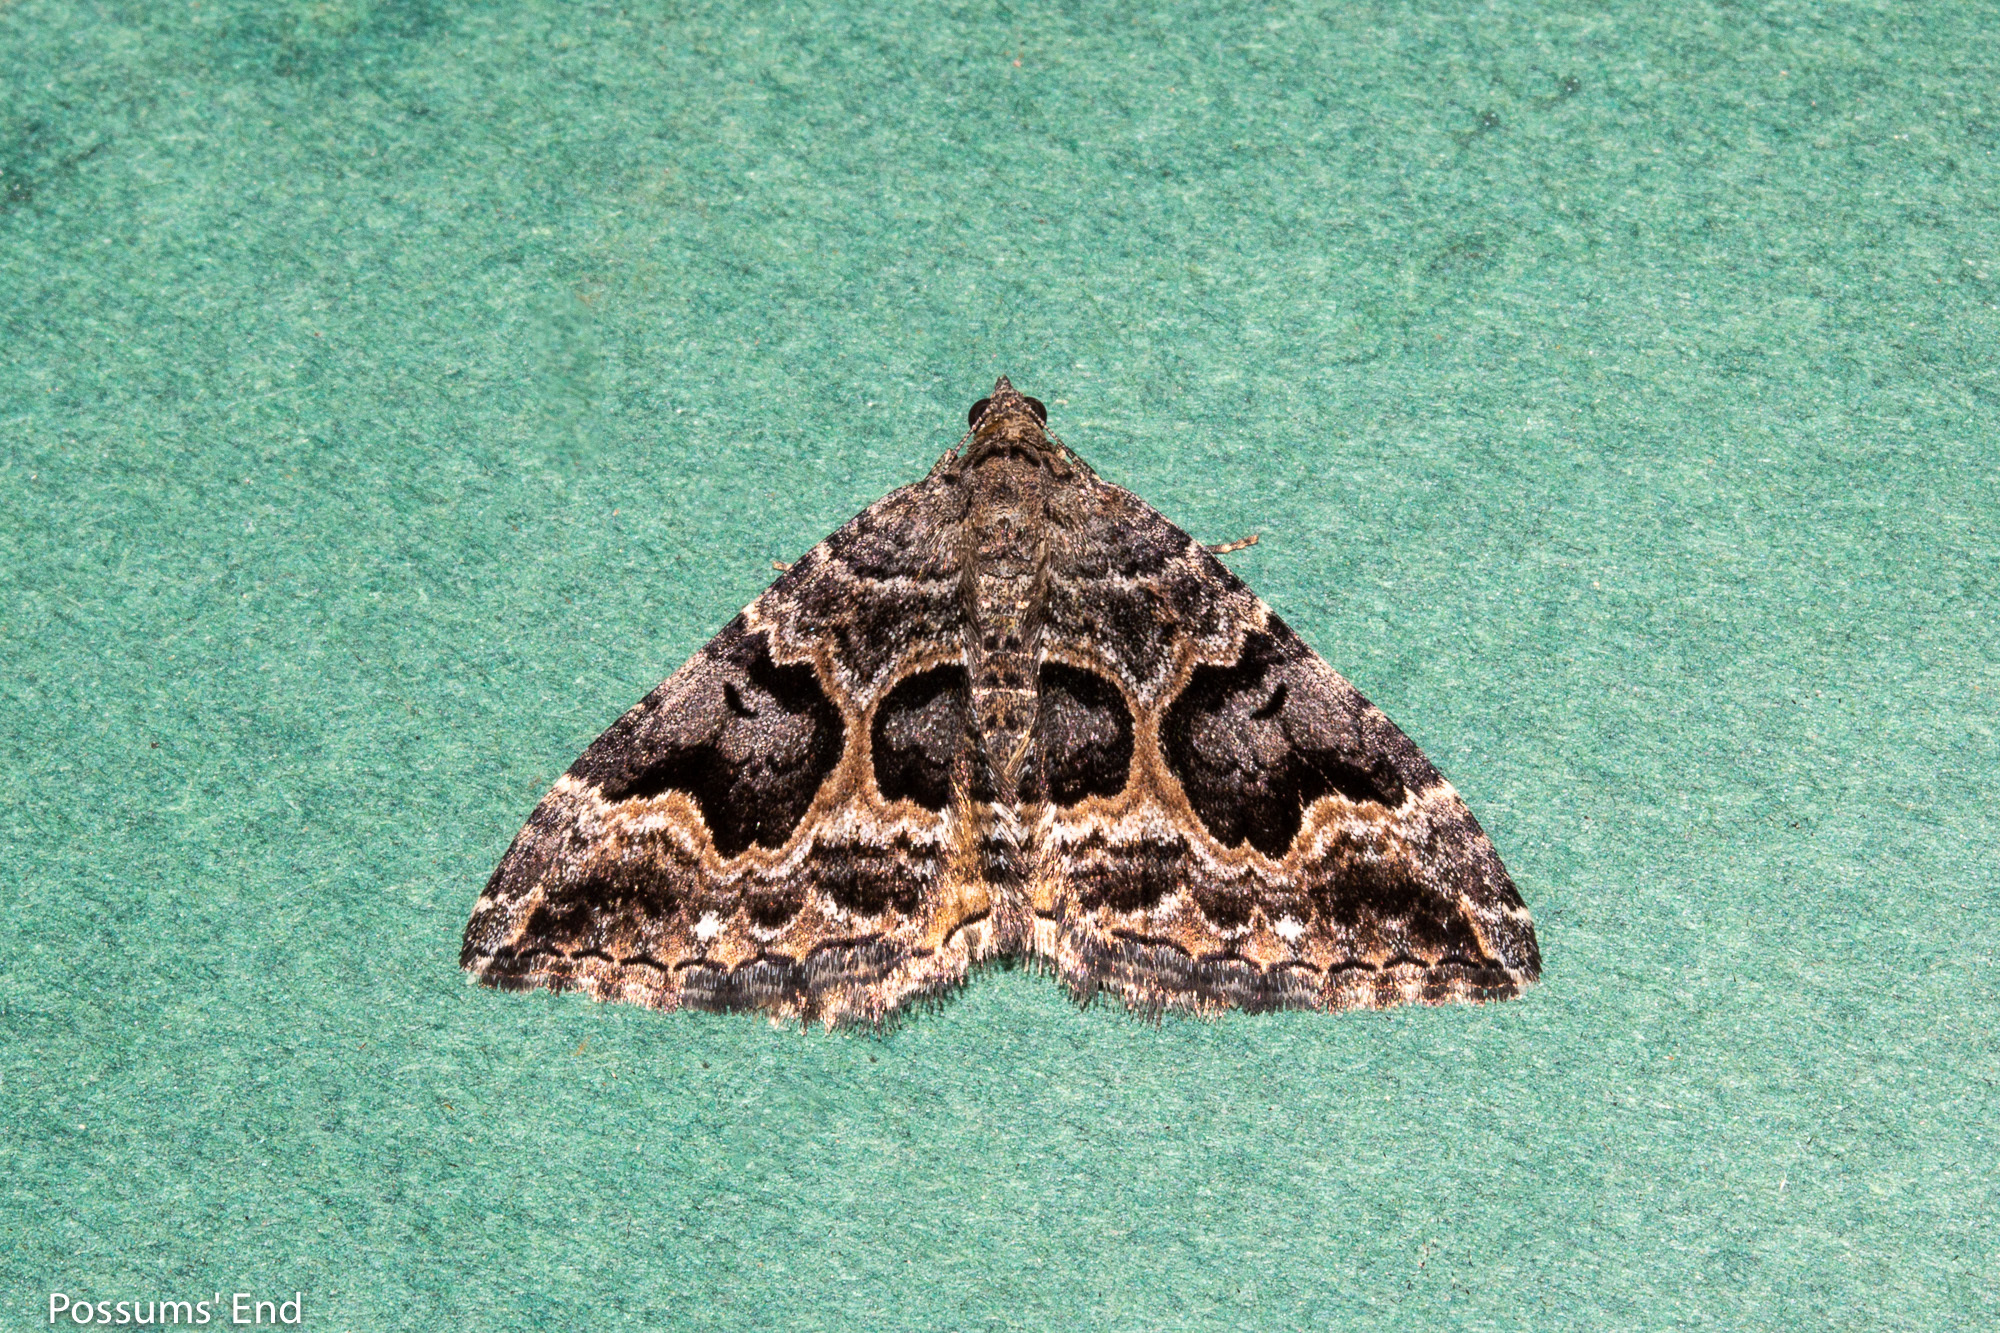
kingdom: Animalia
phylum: Arthropoda
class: Insecta
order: Lepidoptera
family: Geometridae
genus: Hydriomena
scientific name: Hydriomena deltoidata
